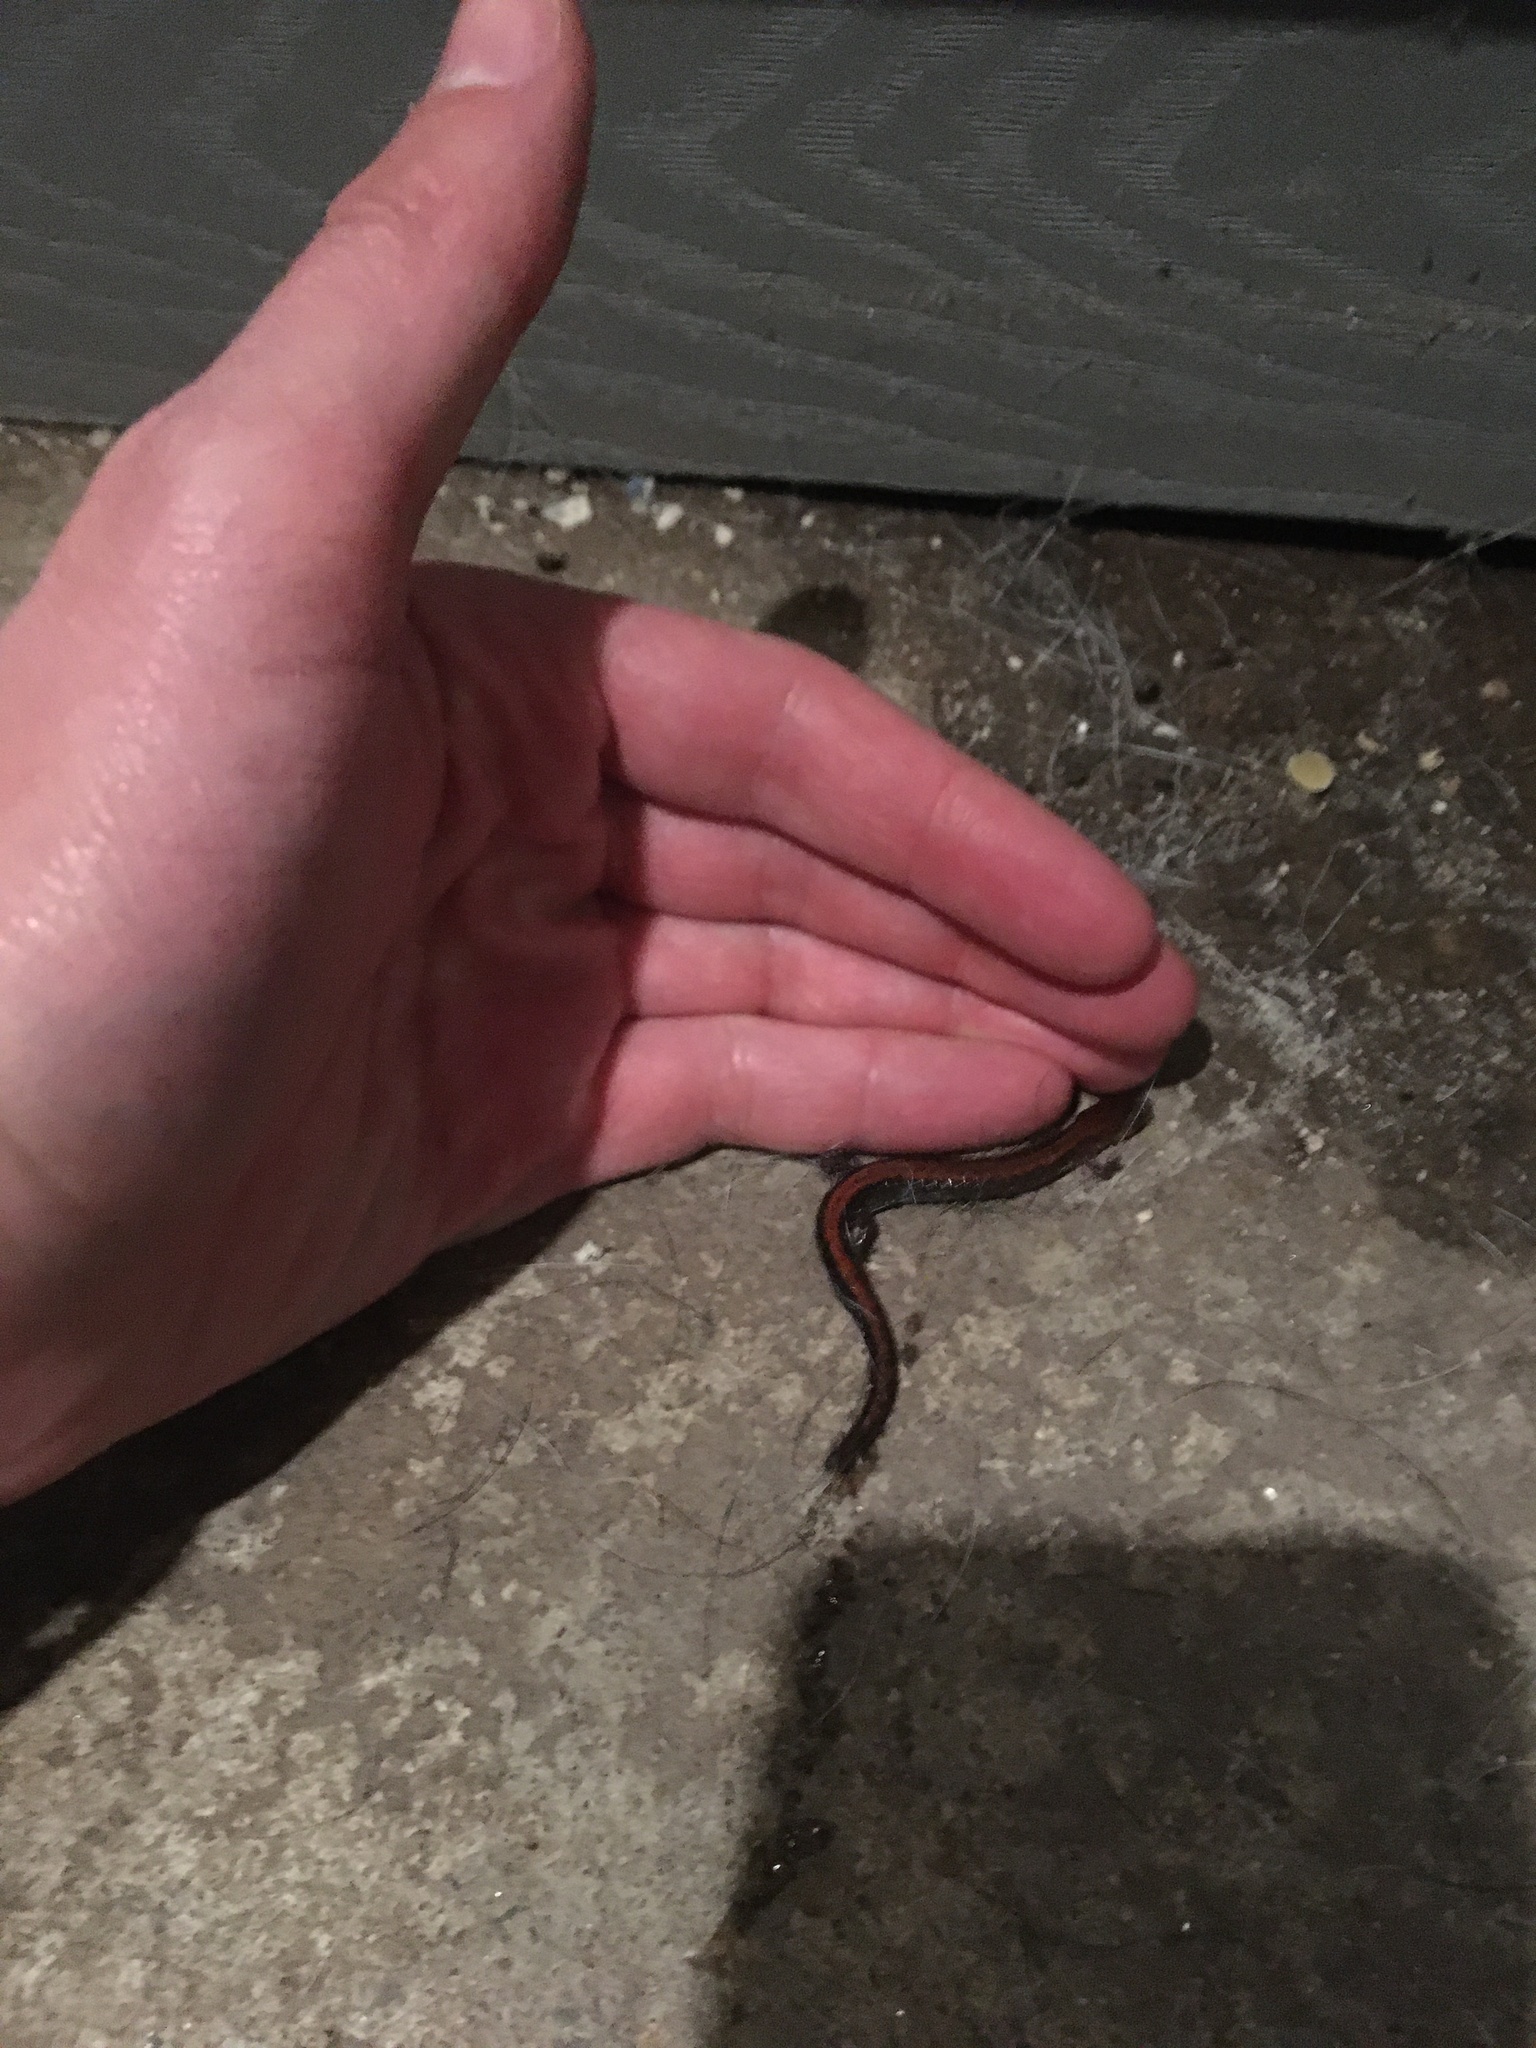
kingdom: Animalia
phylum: Chordata
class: Amphibia
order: Caudata
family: Plethodontidae
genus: Plethodon
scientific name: Plethodon cinereus
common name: Redback salamander
